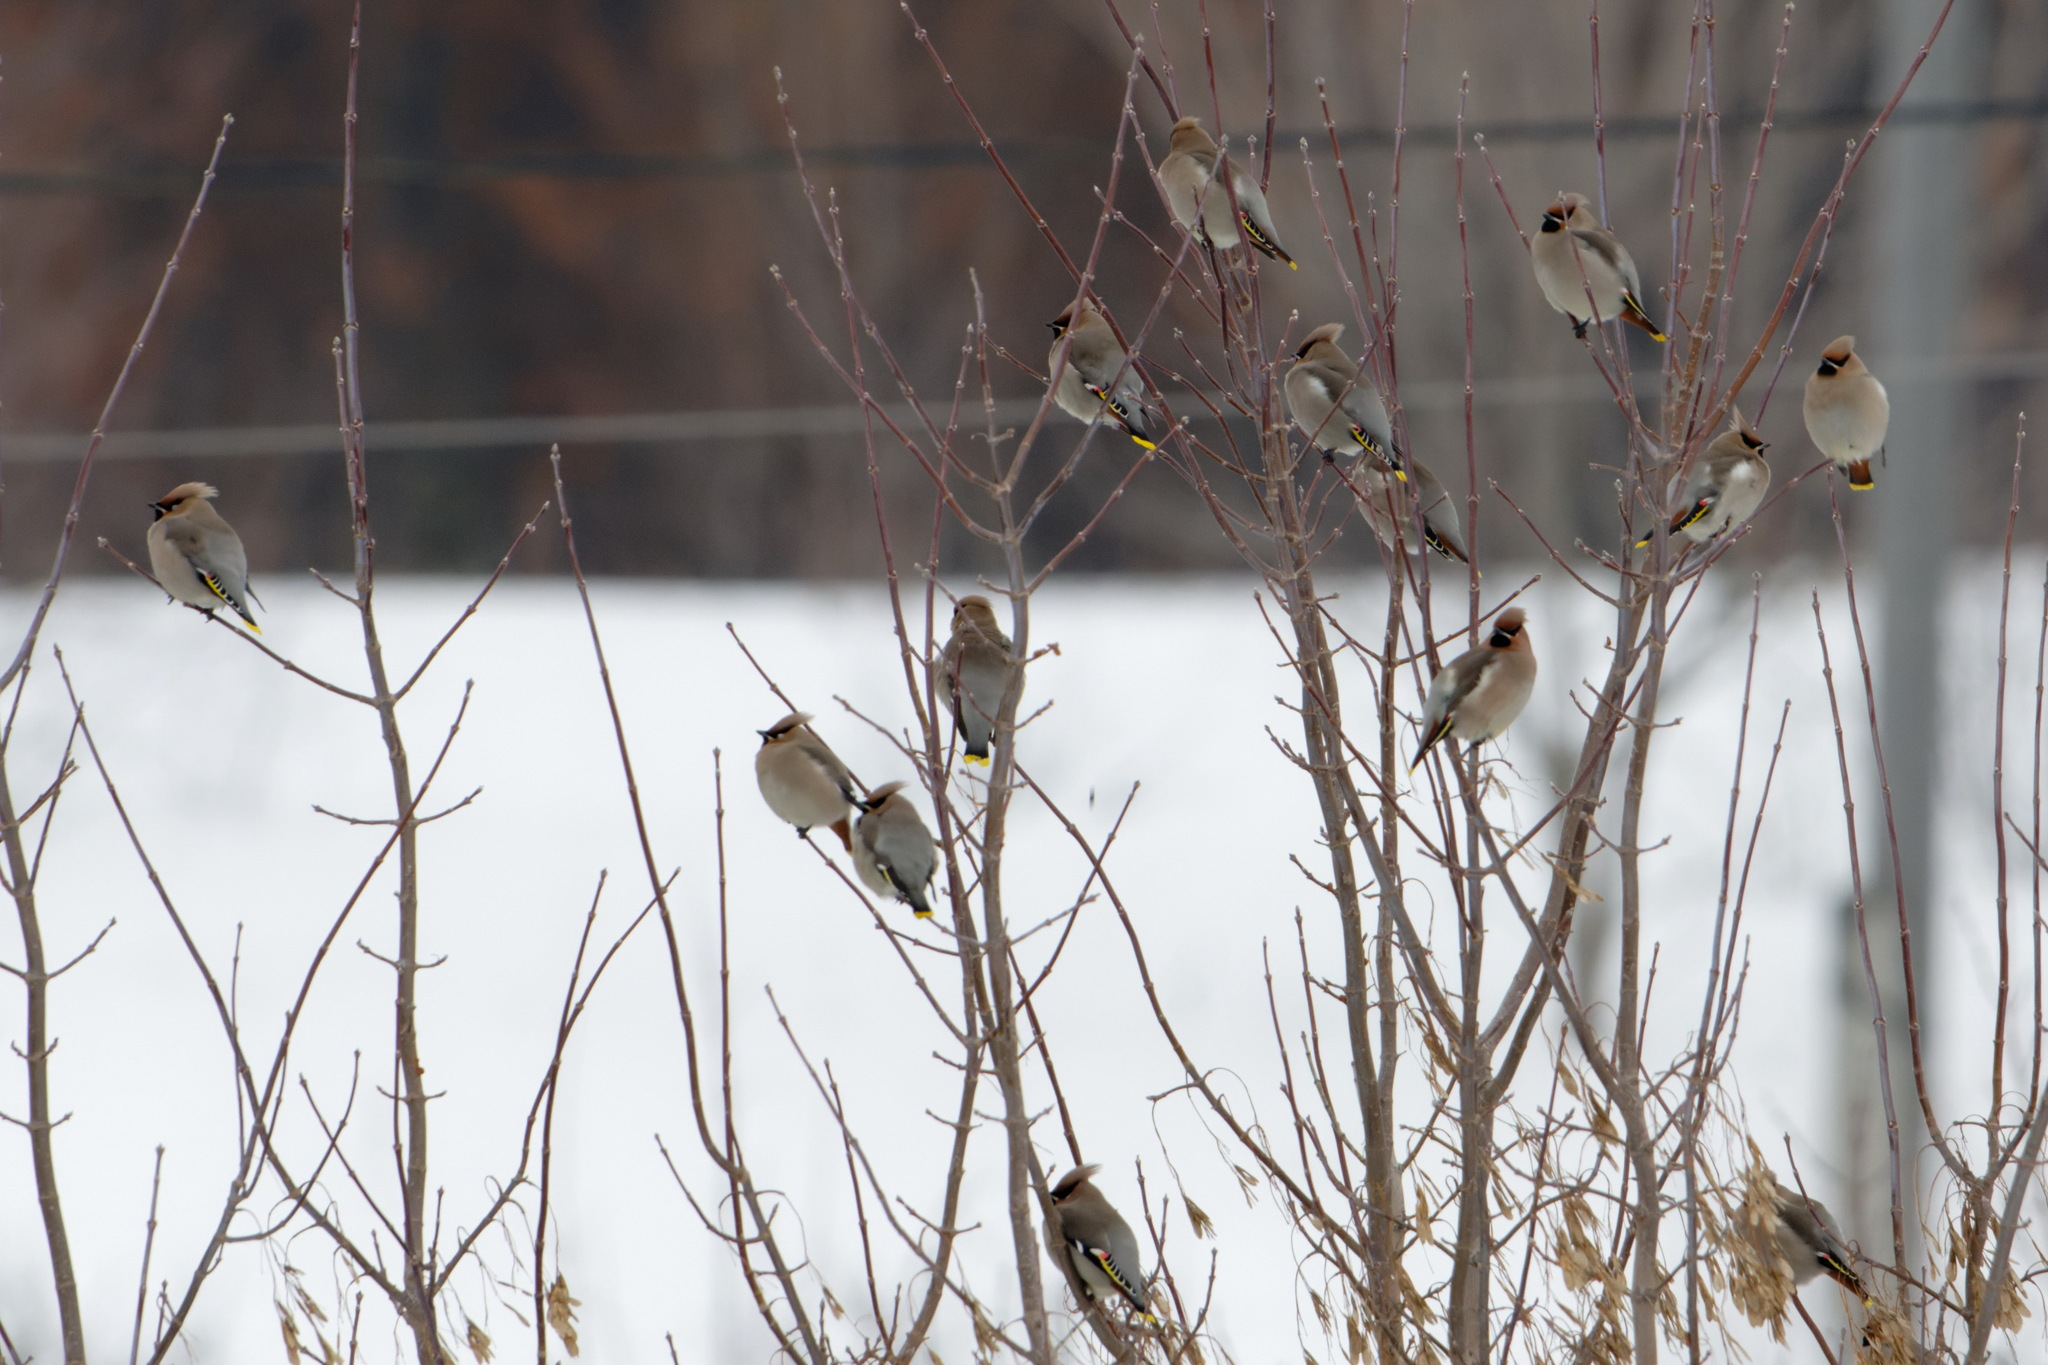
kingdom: Animalia
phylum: Chordata
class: Aves
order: Passeriformes
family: Bombycillidae
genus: Bombycilla
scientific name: Bombycilla garrulus
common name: Bohemian waxwing
